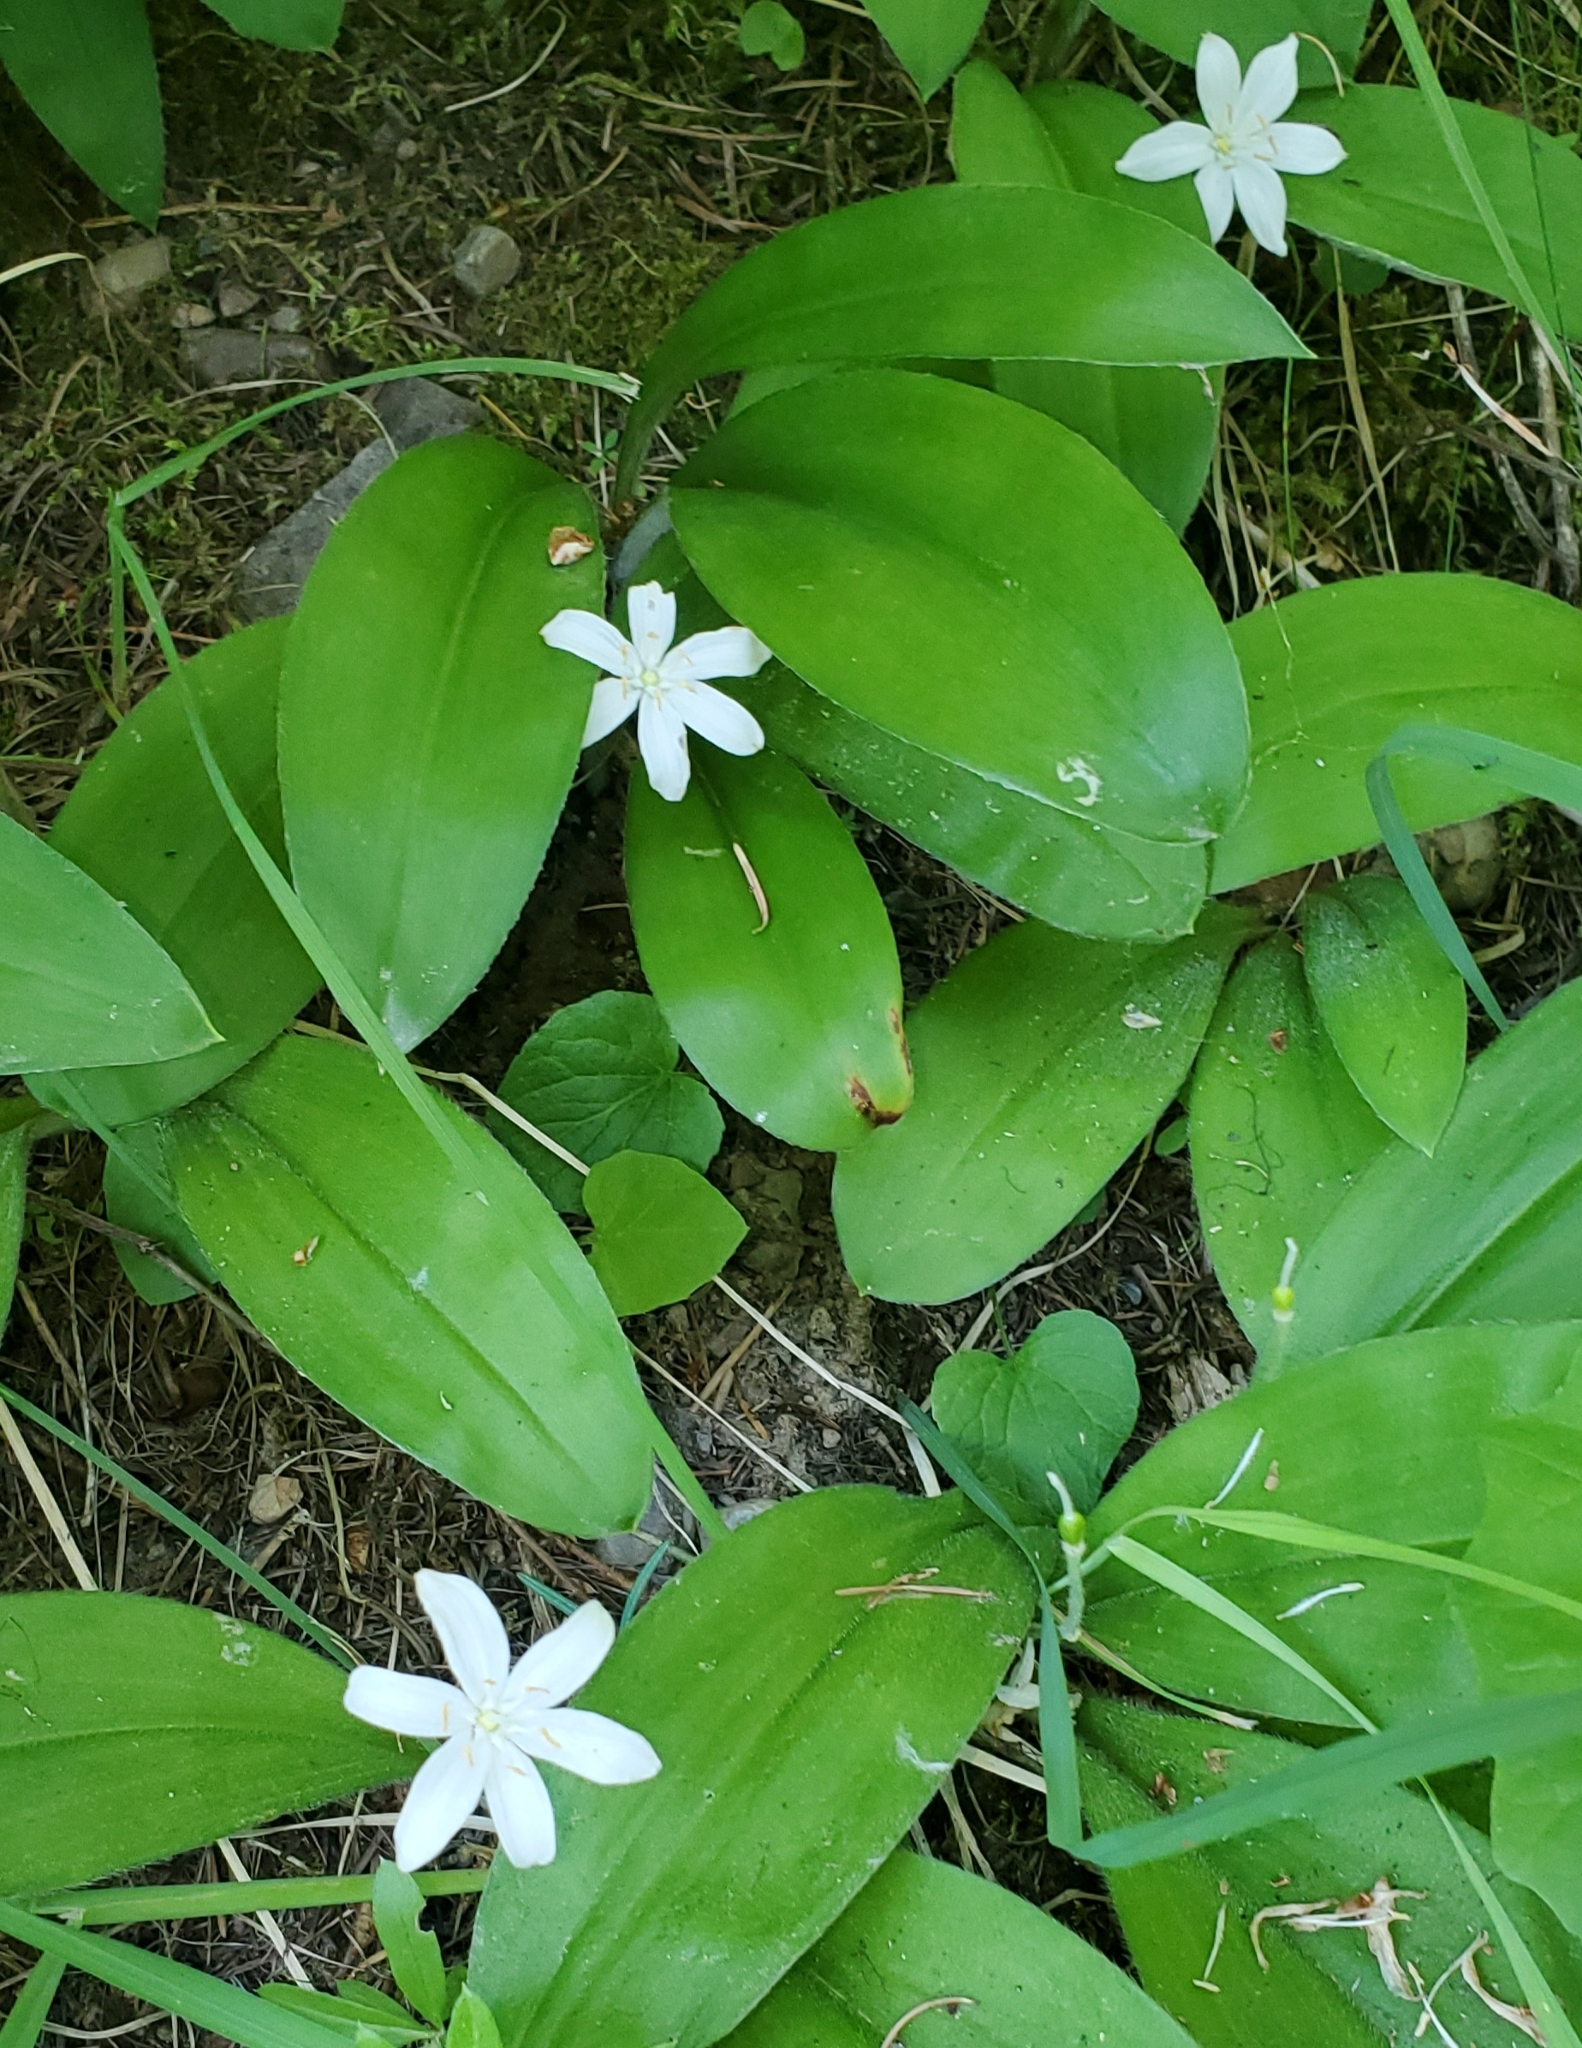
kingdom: Plantae
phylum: Tracheophyta
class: Liliopsida
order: Liliales
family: Liliaceae
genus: Clintonia
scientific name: Clintonia uniflora
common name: Queen's cup
